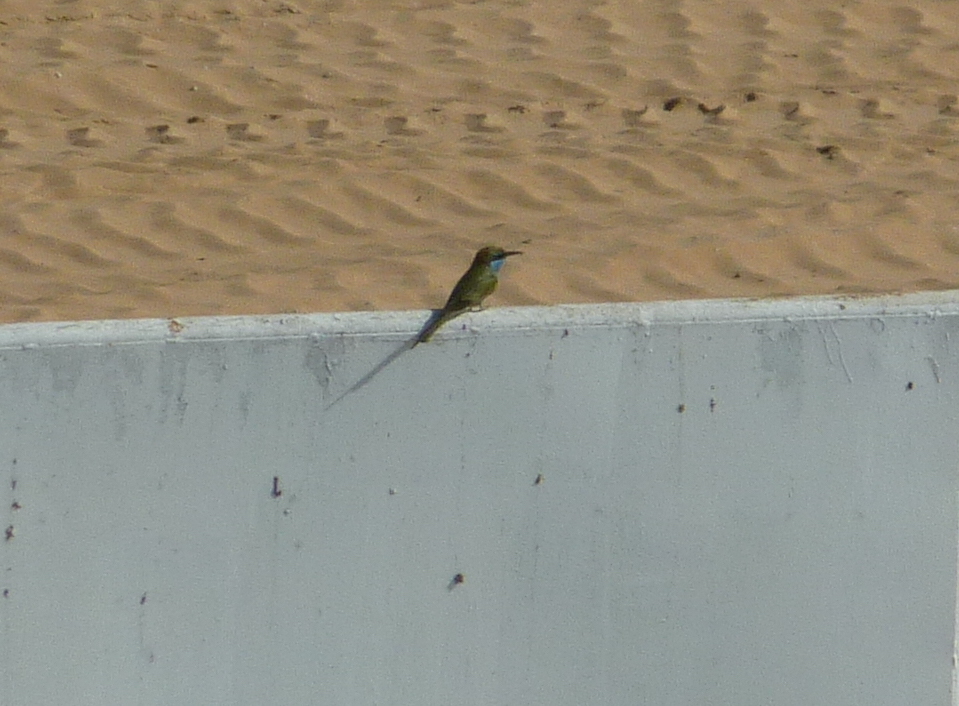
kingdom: Animalia
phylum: Chordata
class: Aves
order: Coraciiformes
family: Meropidae
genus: Merops
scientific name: Merops cyanophrys
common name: Arabian green bee-eater
